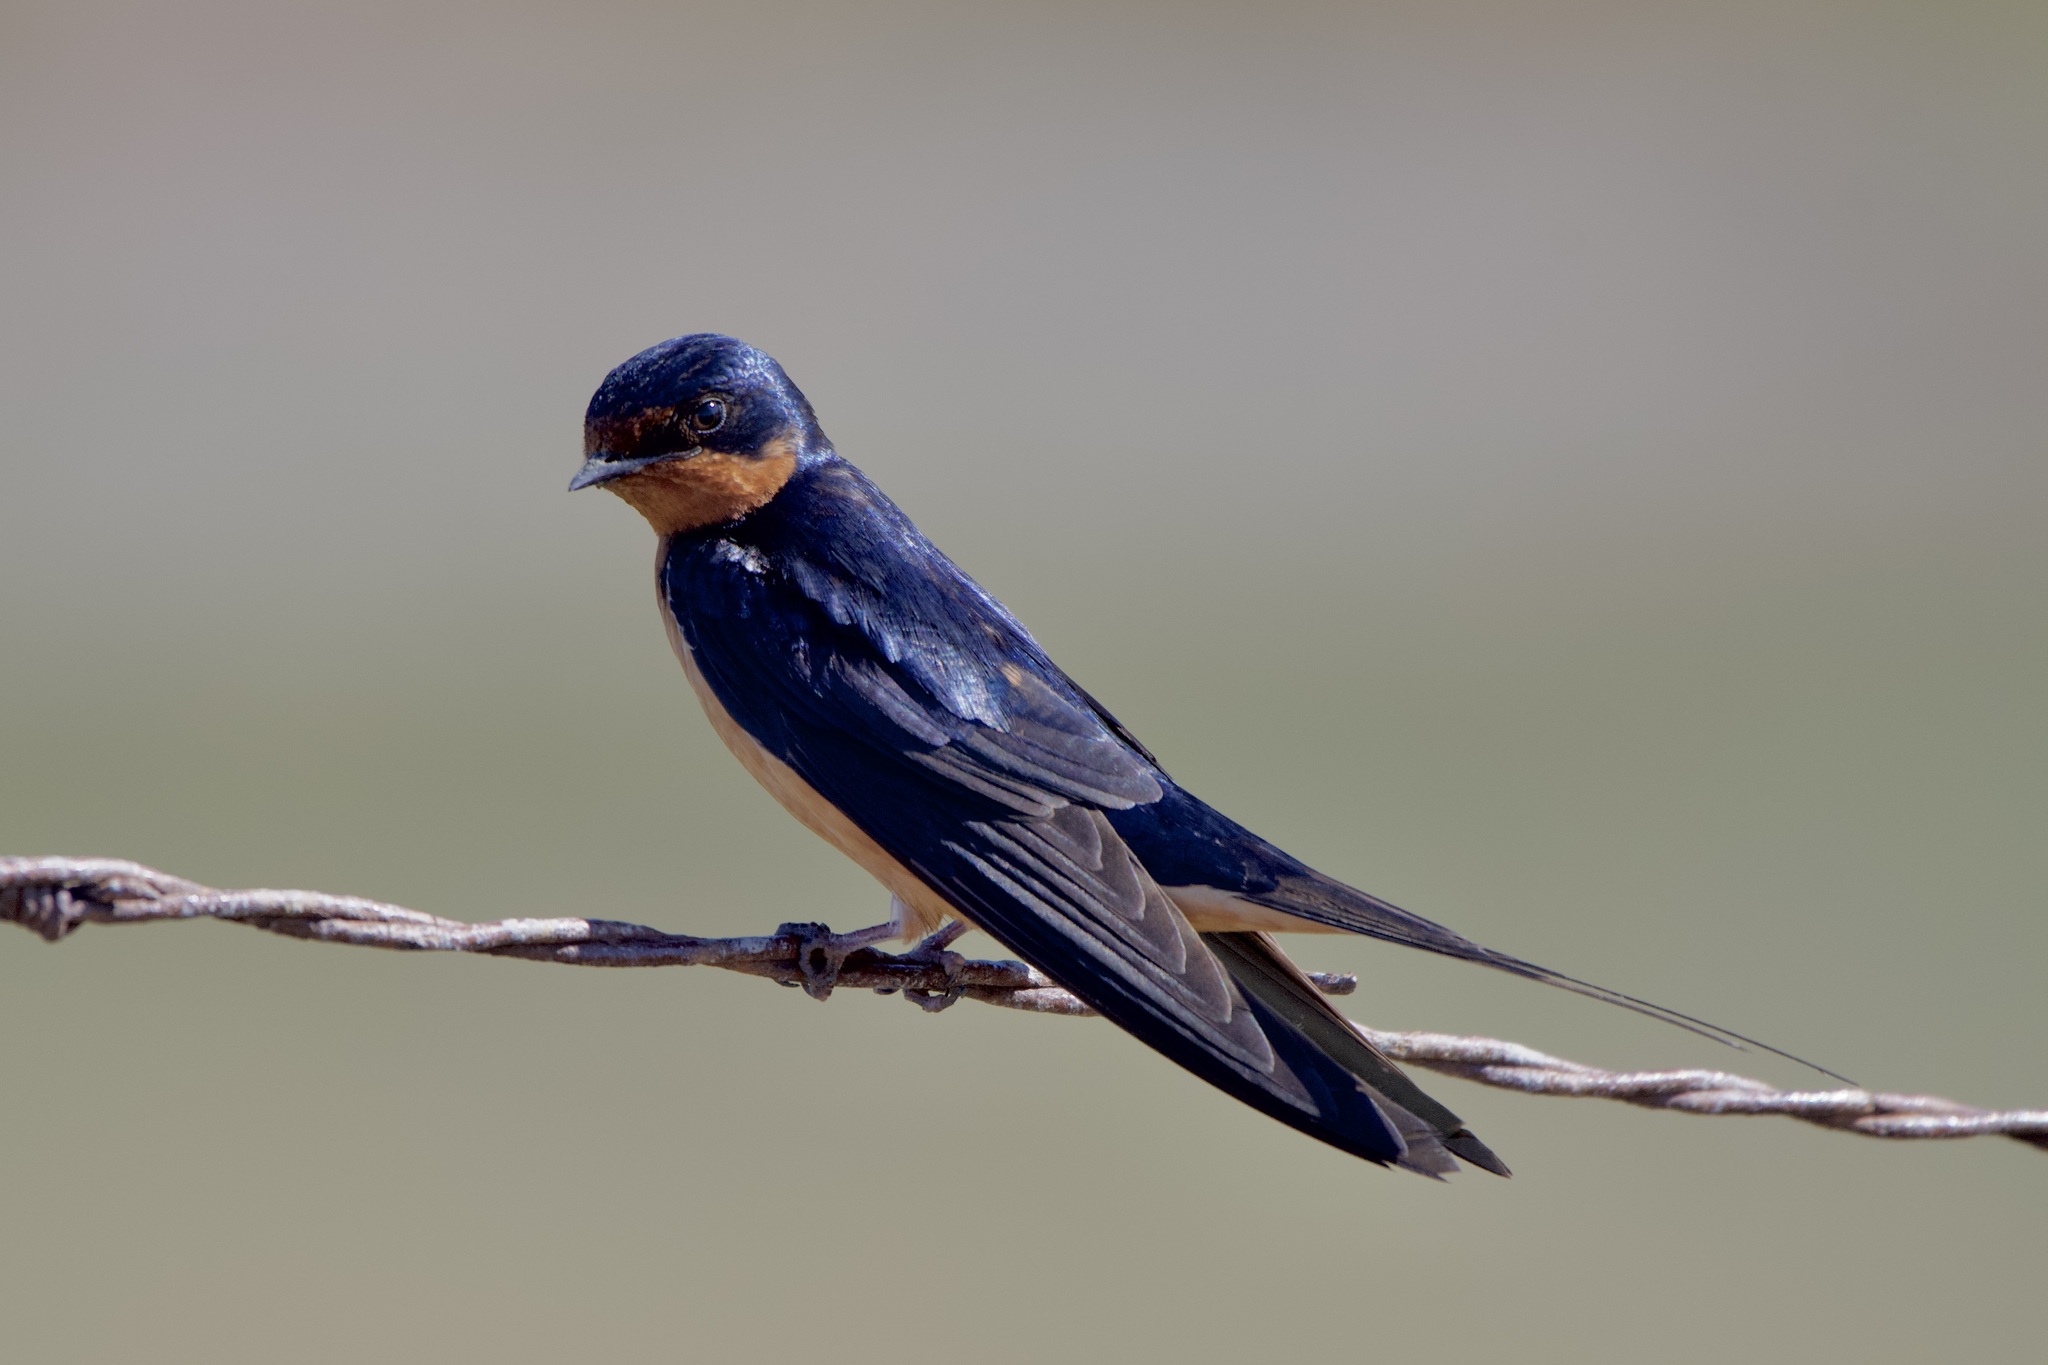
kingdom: Animalia
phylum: Chordata
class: Aves
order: Passeriformes
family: Hirundinidae
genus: Hirundo
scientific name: Hirundo rustica
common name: Barn swallow
